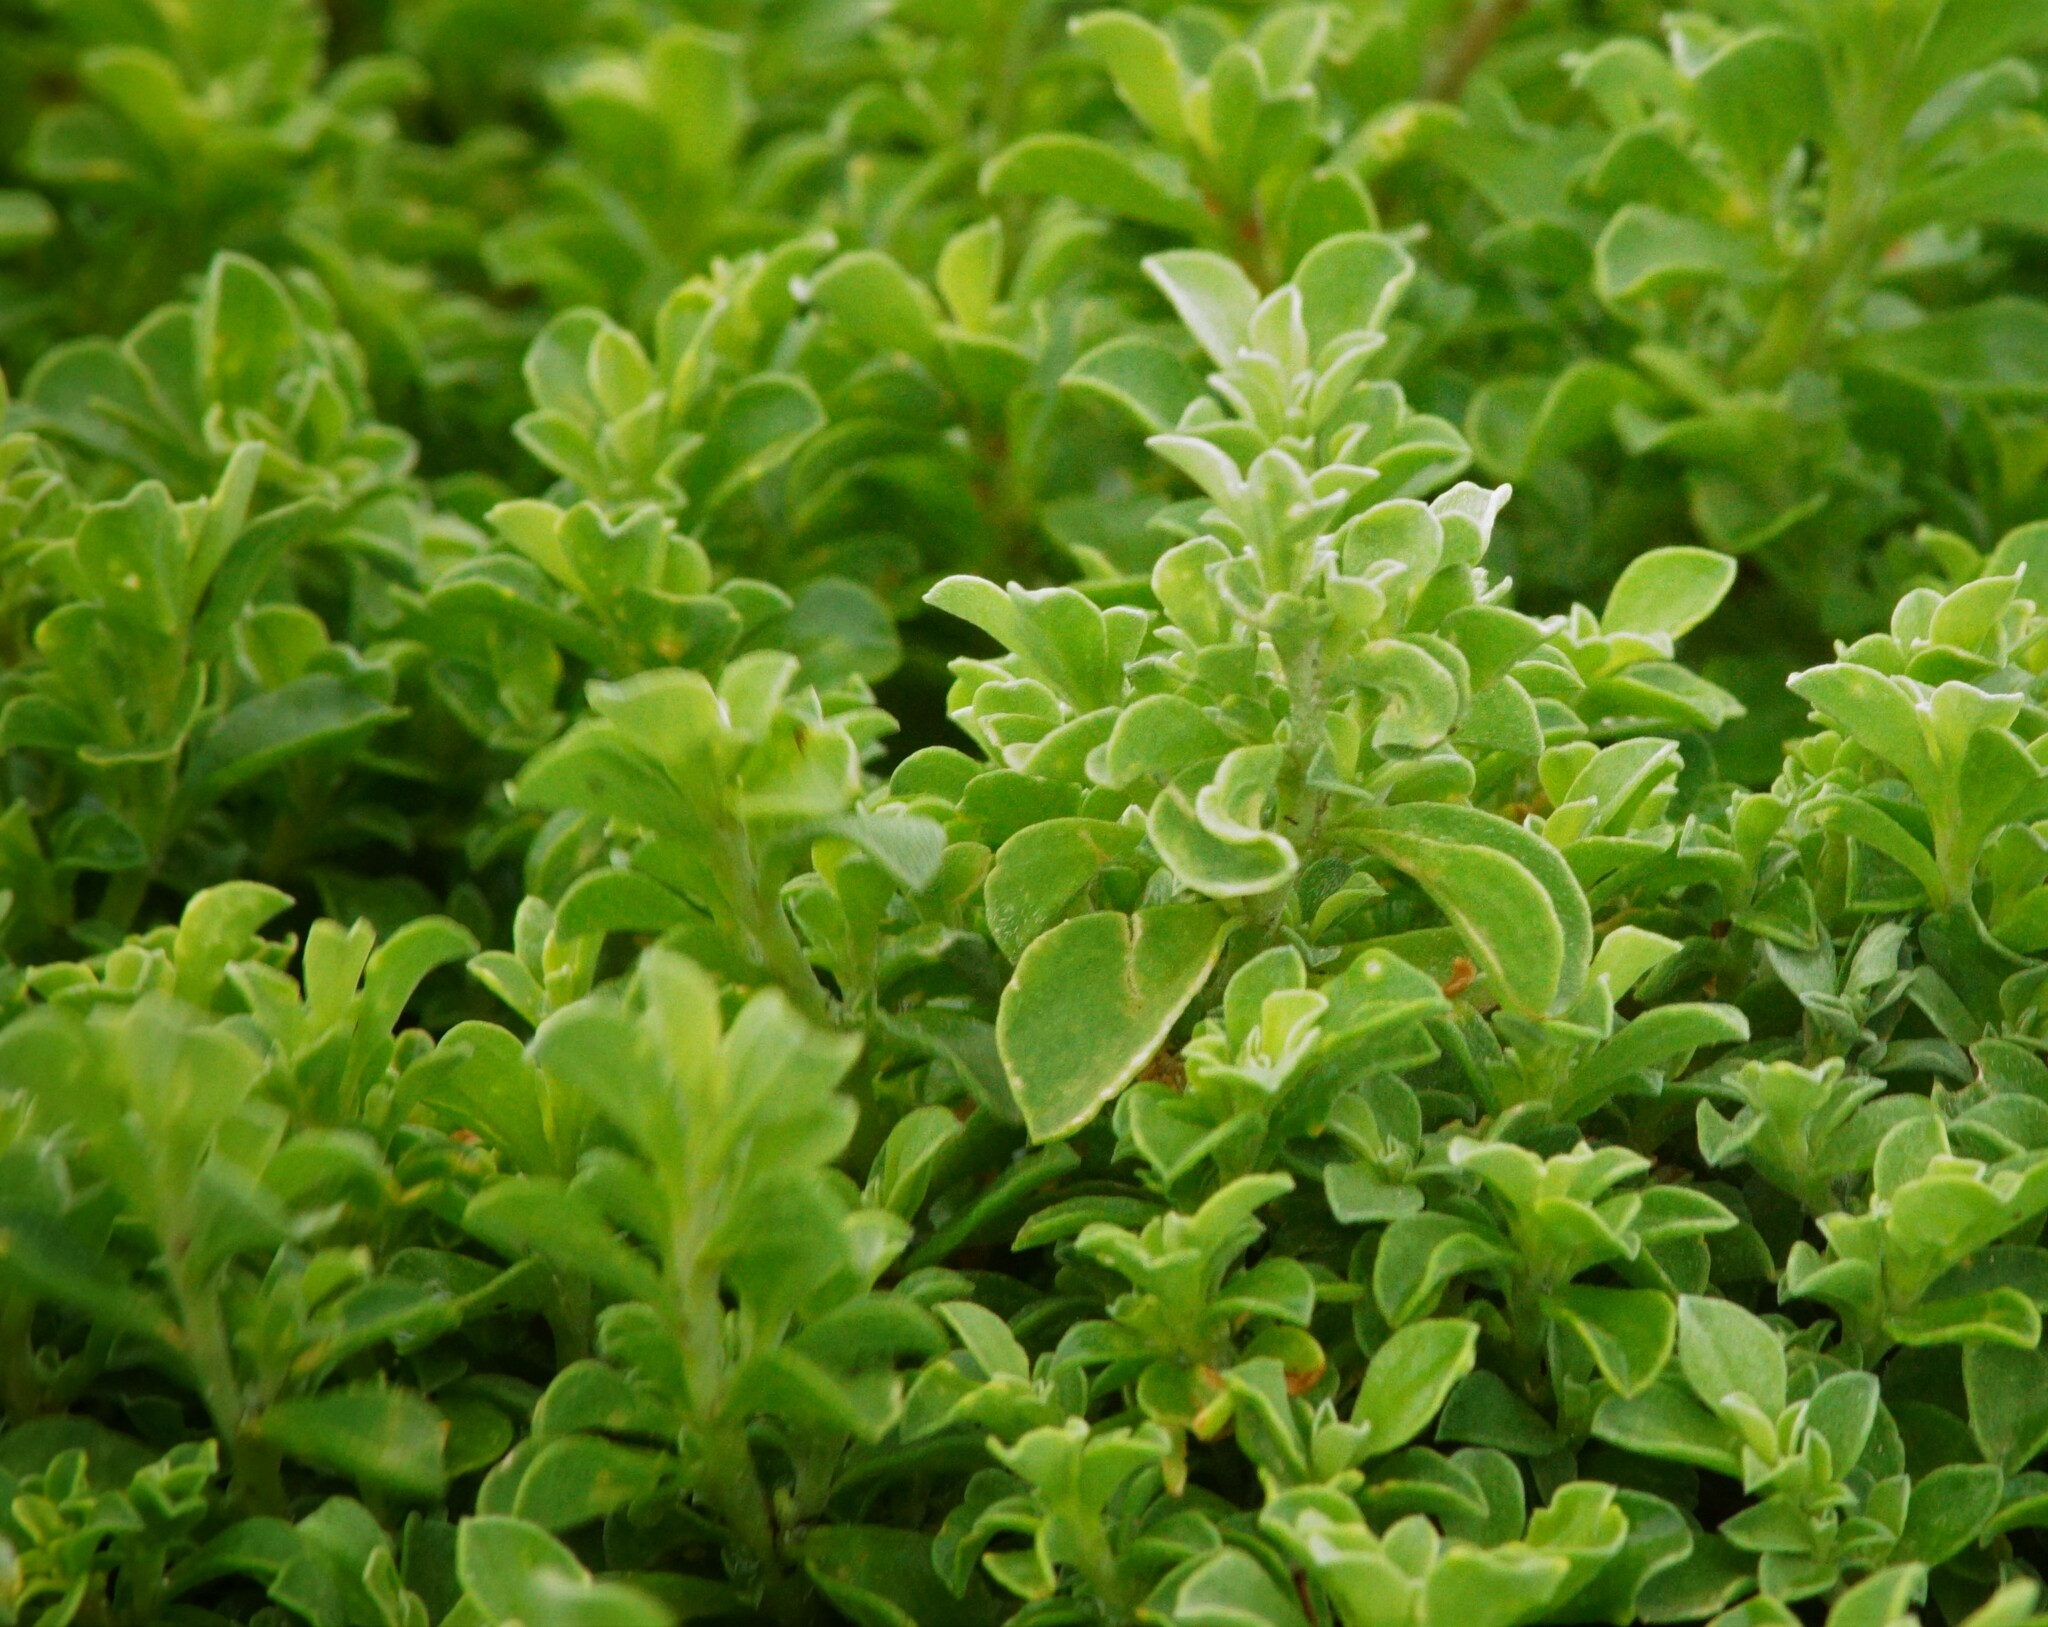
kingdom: Plantae
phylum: Tracheophyta
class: Magnoliopsida
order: Caryophyllales
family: Aizoaceae
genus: Aizoon
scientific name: Aizoon pubescens
